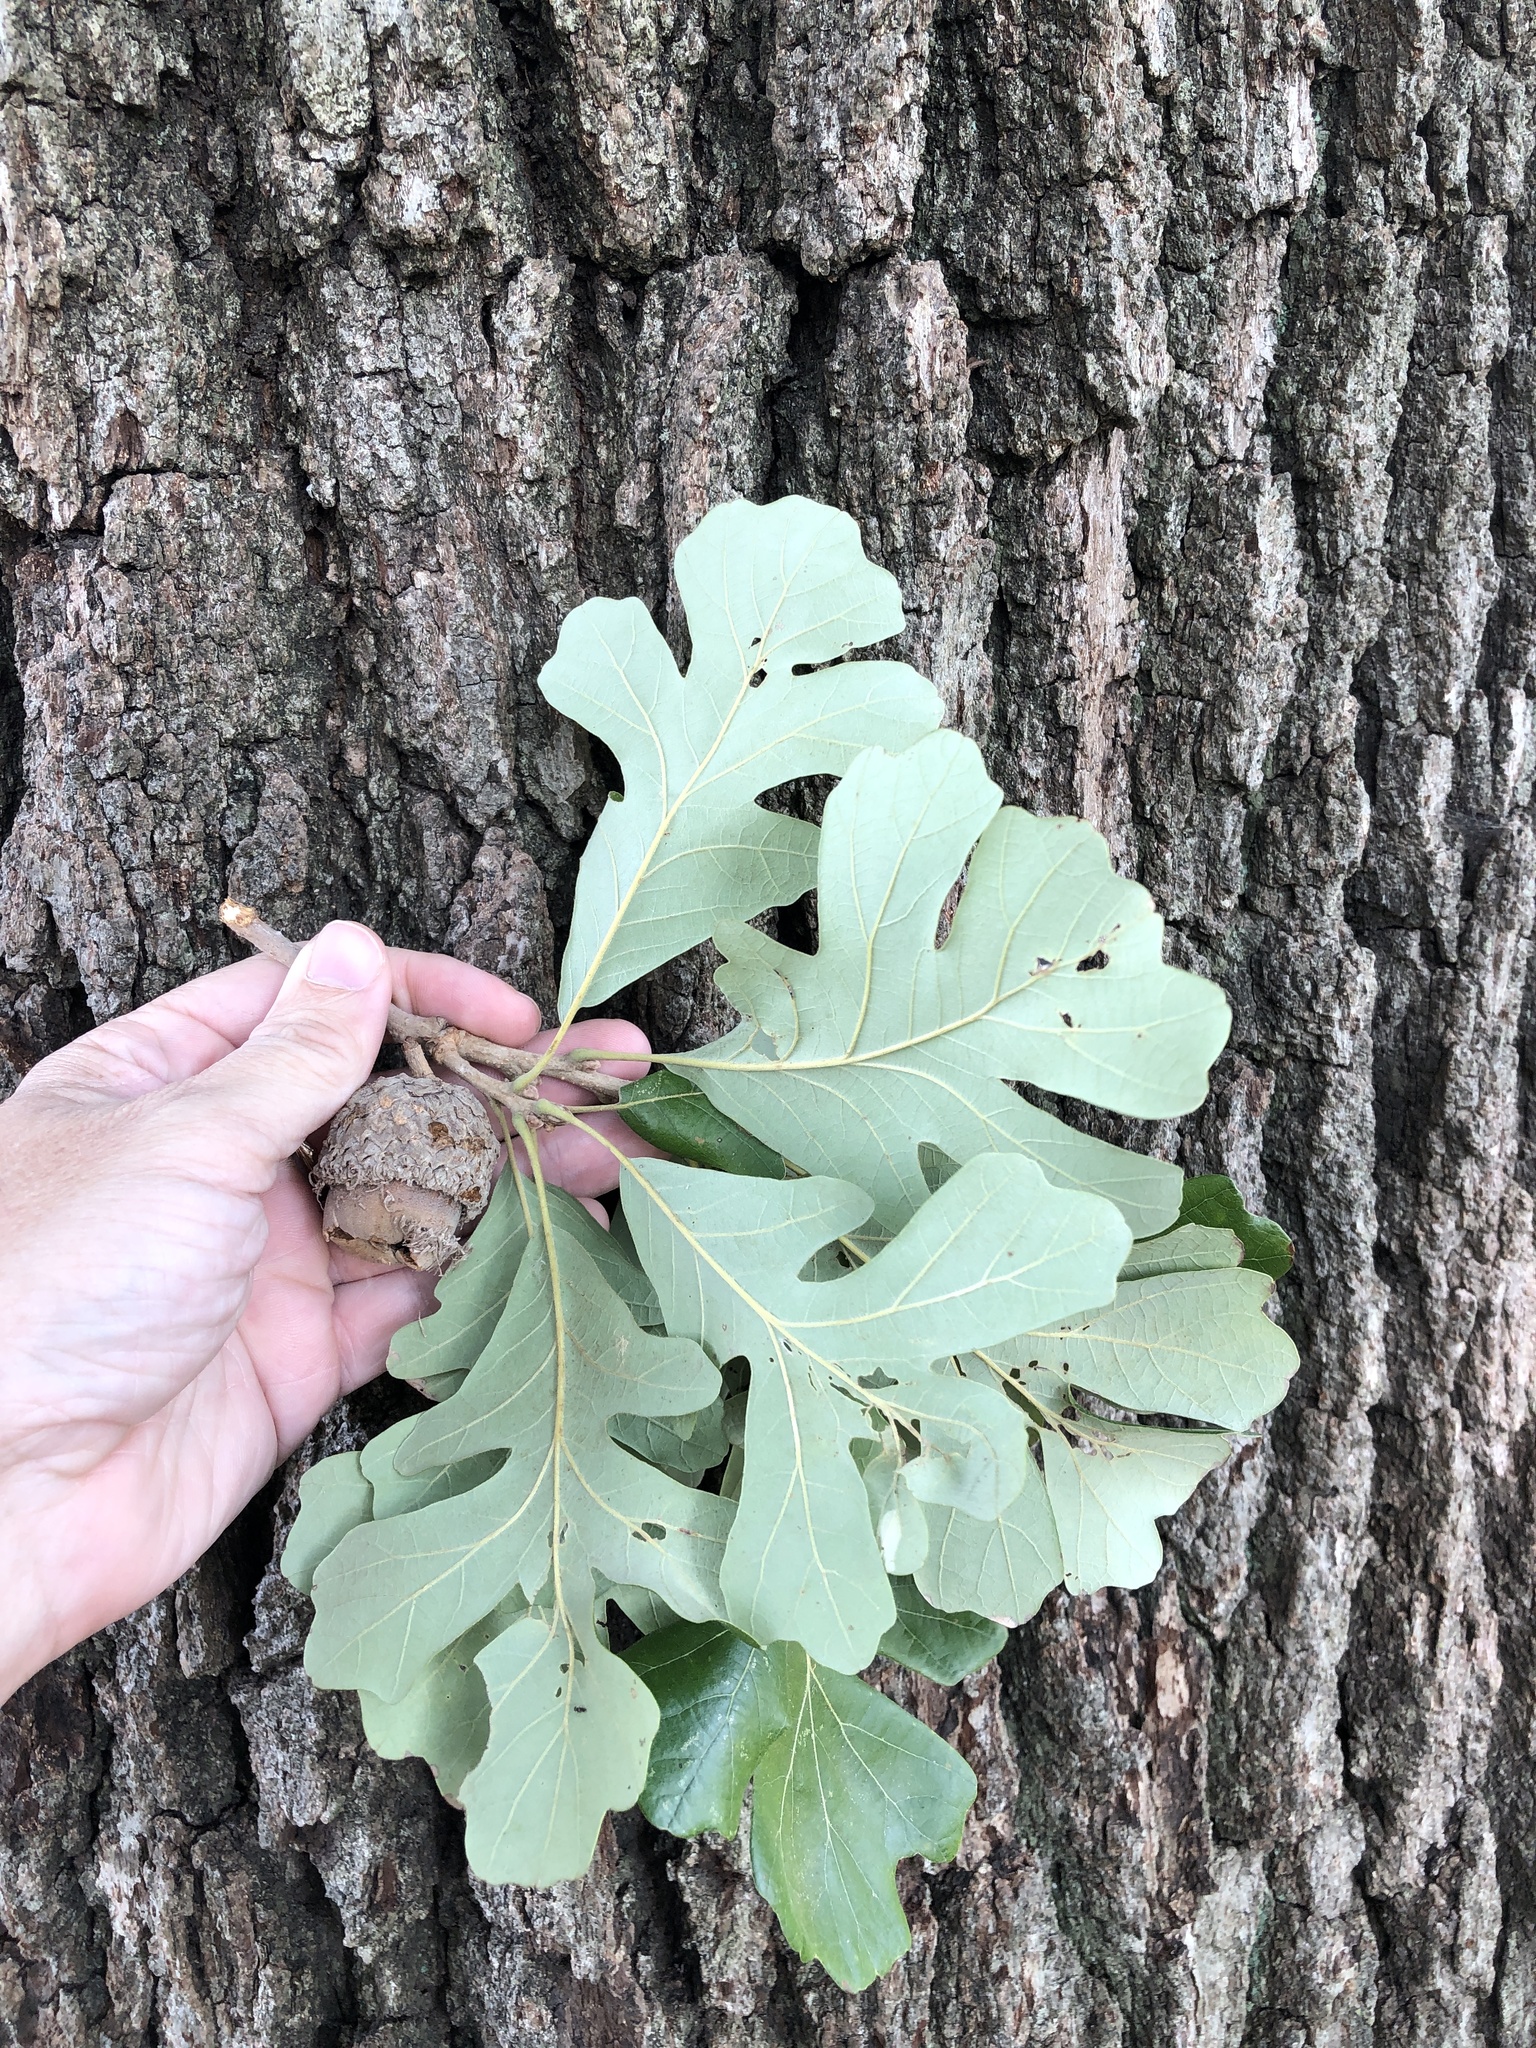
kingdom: Plantae
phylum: Tracheophyta
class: Magnoliopsida
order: Fagales
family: Fagaceae
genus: Quercus
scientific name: Quercus macrocarpa
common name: Bur oak
